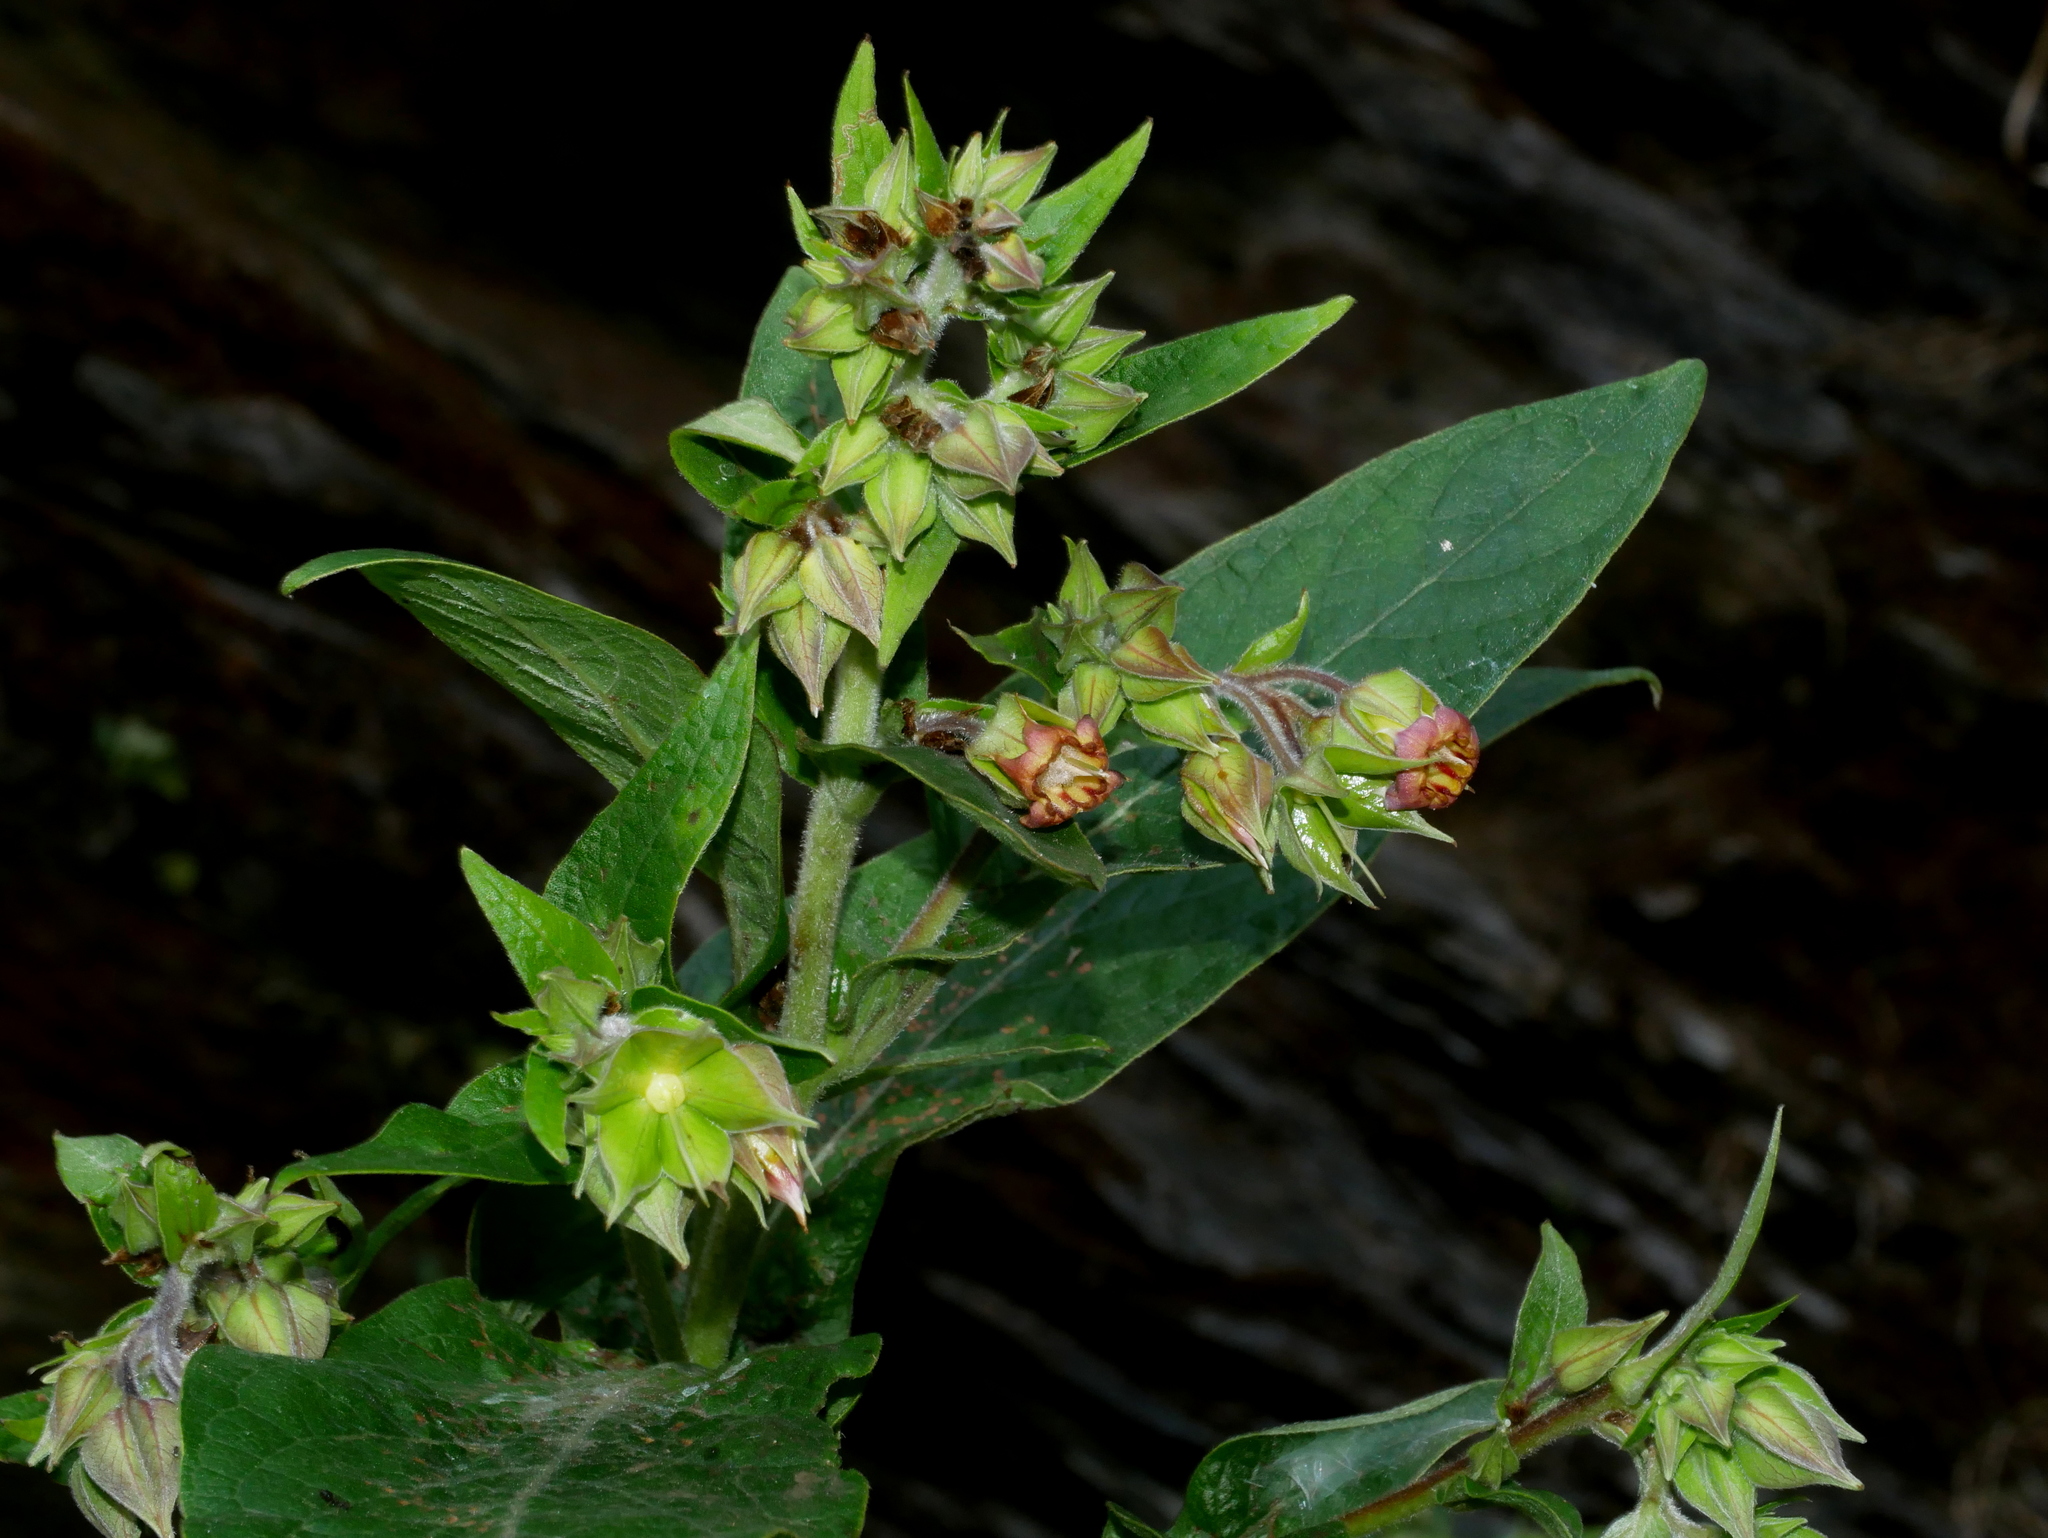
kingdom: Plantae
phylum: Tracheophyta
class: Magnoliopsida
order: Boraginales
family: Boraginaceae
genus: Trichodesma
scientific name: Trichodesma calycosum
